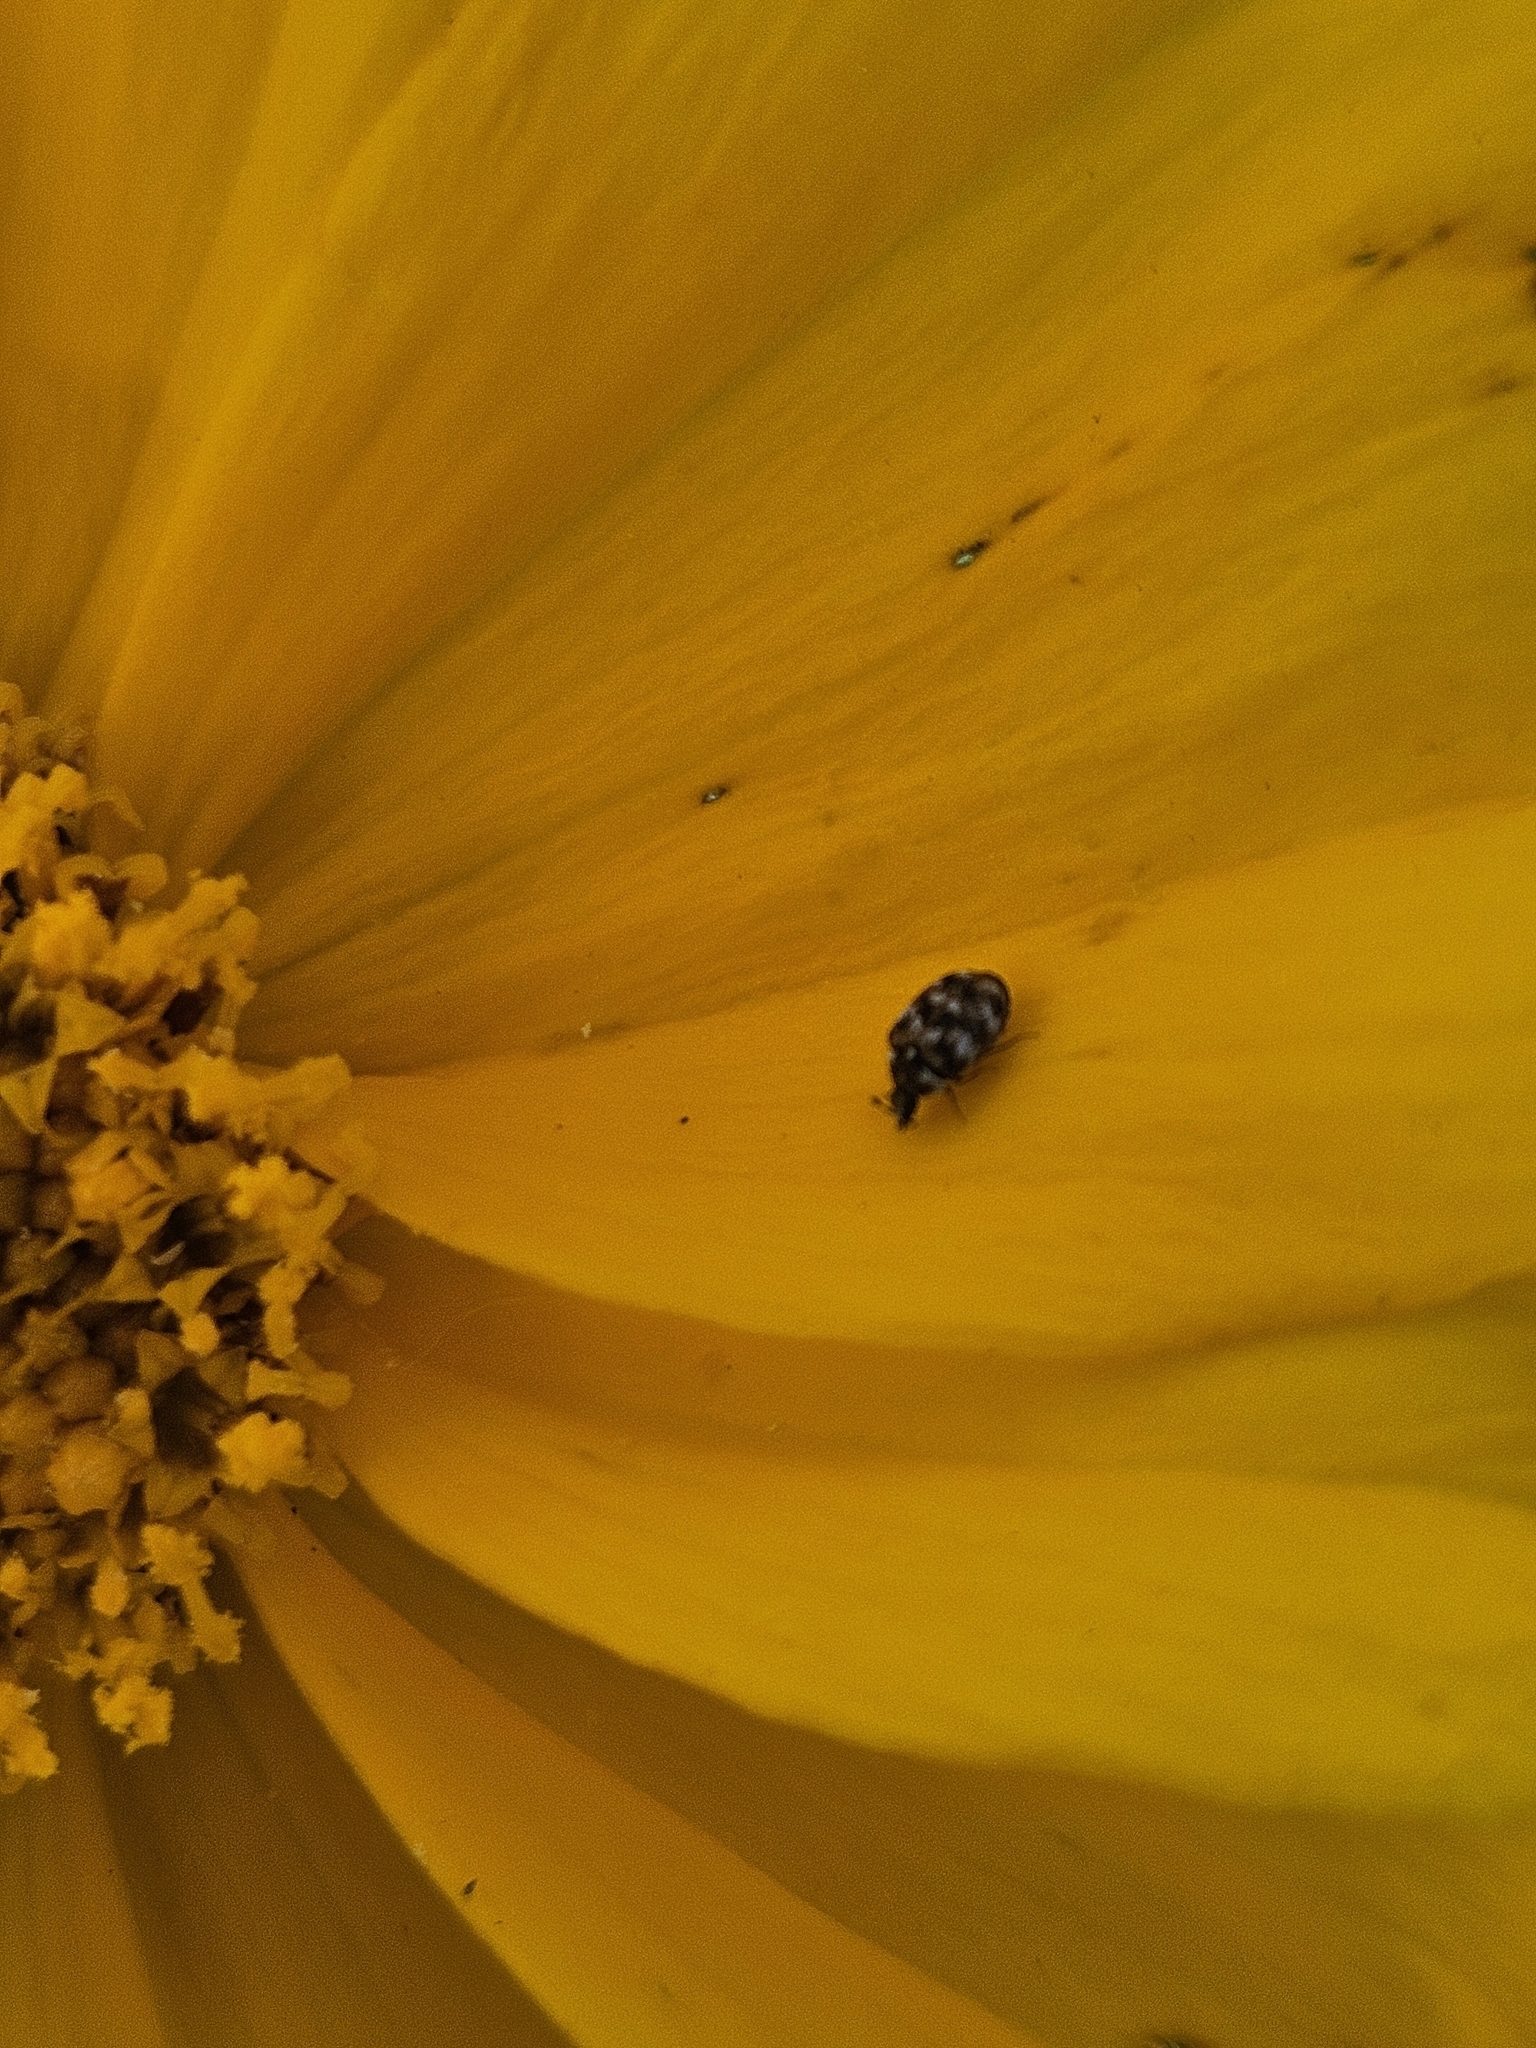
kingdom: Animalia
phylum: Arthropoda
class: Insecta
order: Coleoptera
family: Dermestidae
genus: Anthrenus
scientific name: Anthrenus verbasci
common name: Varied carpet beetle
